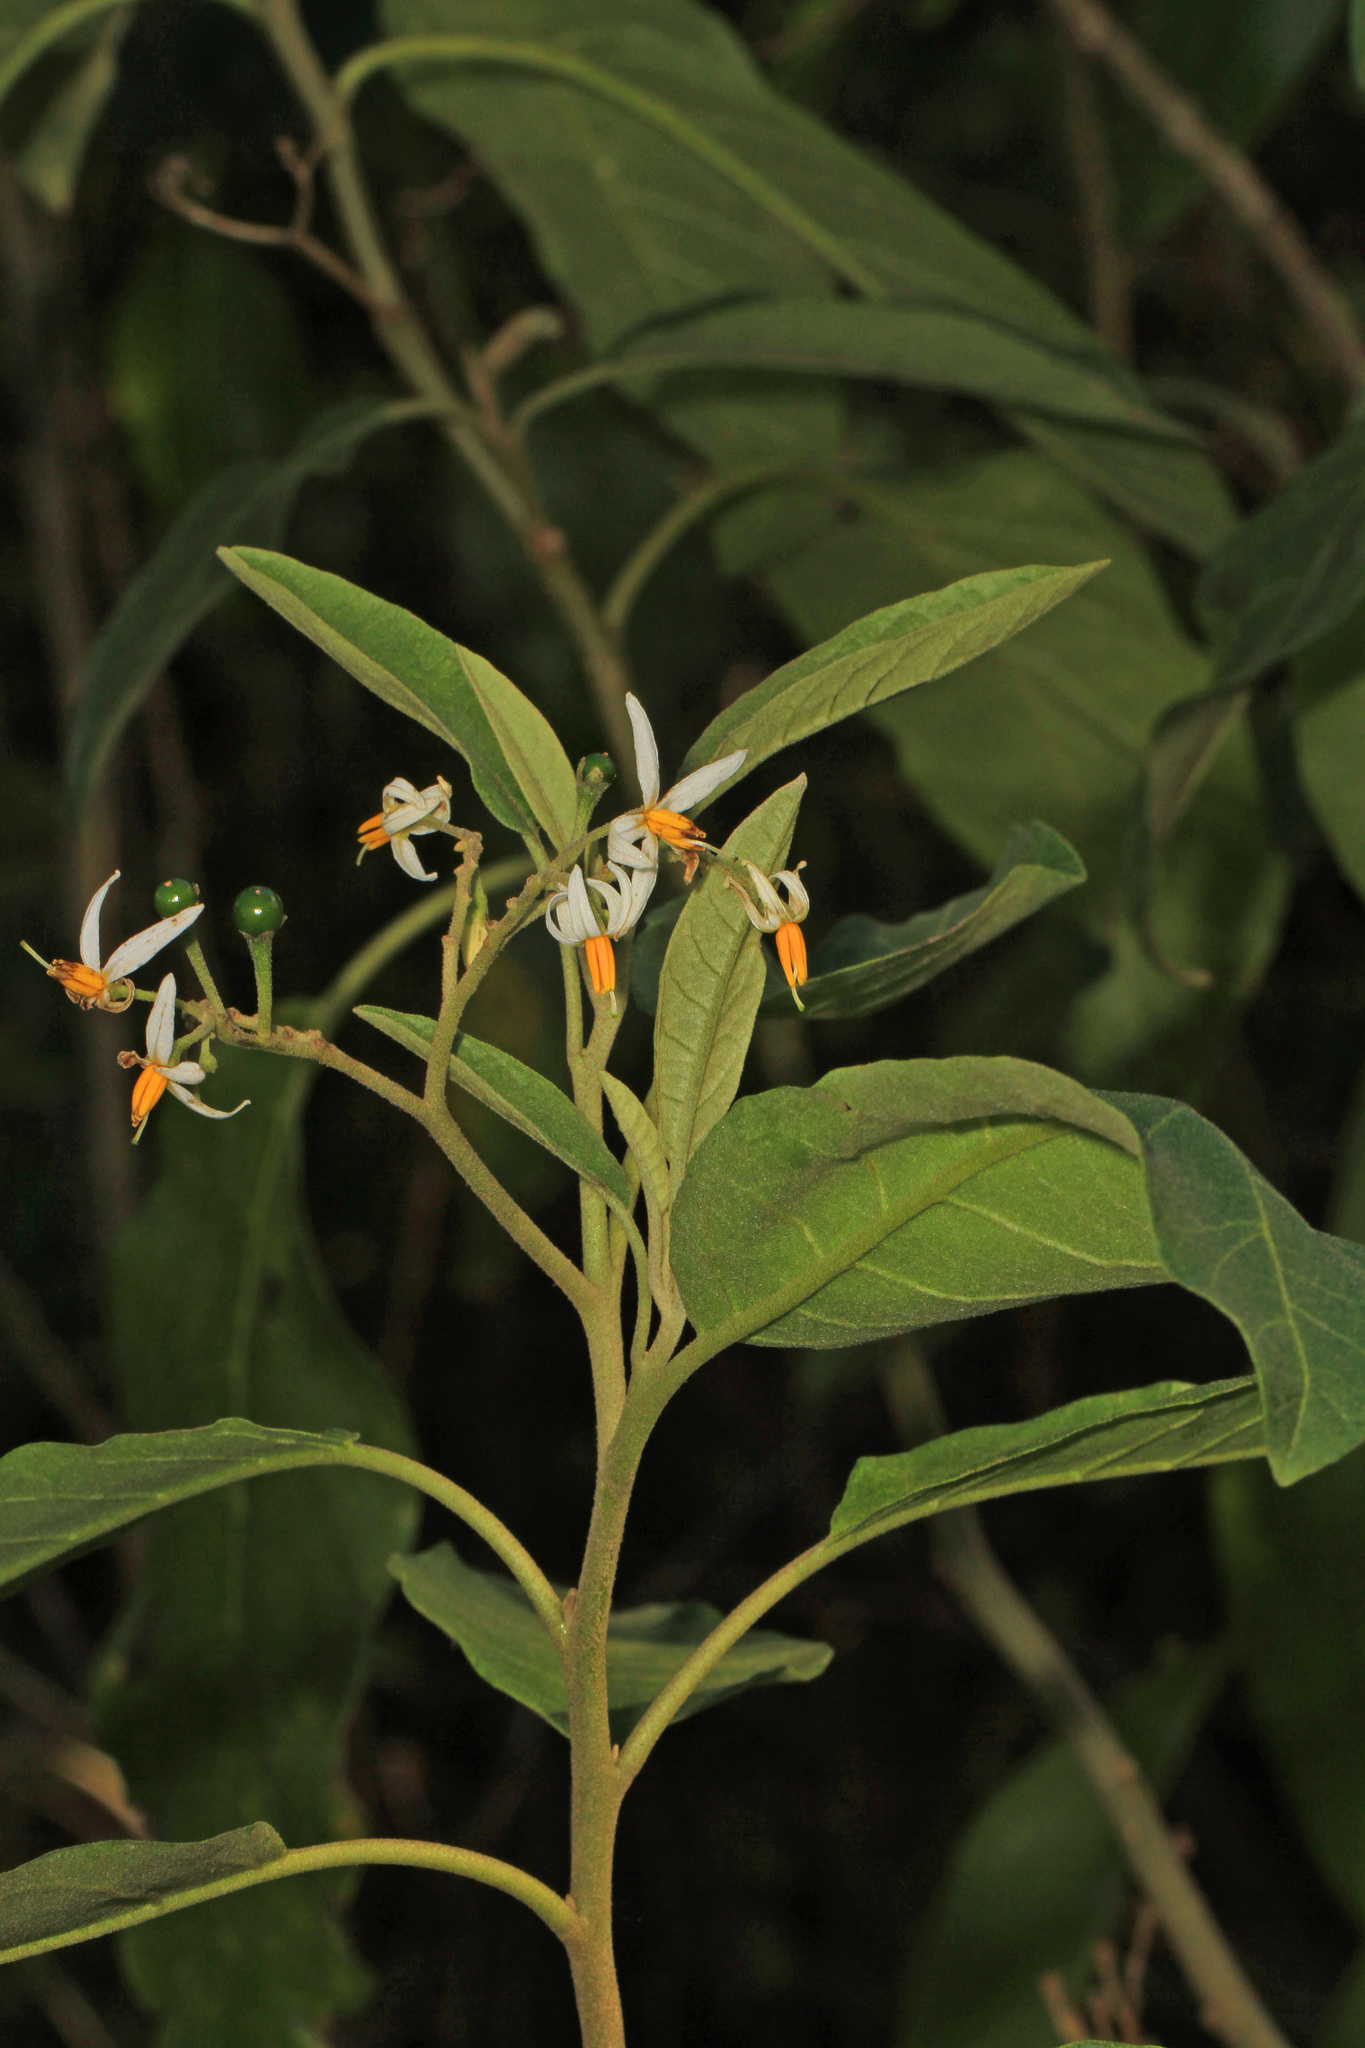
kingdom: Plantae
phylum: Tracheophyta
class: Magnoliopsida
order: Solanales
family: Solanaceae
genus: Solanum
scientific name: Solanum donianum
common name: Mullein nightshade
